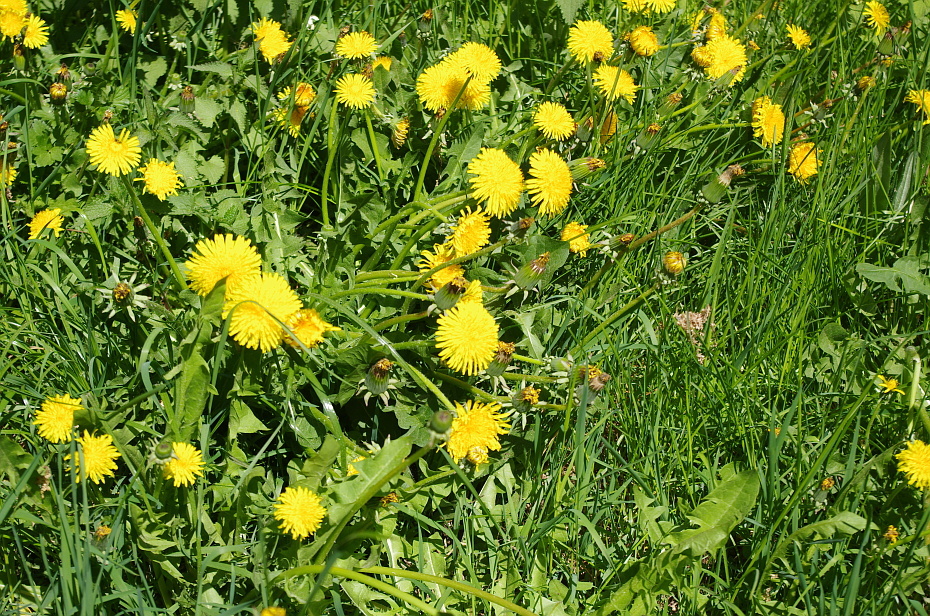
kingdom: Plantae
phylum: Tracheophyta
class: Magnoliopsida
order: Asterales
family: Asteraceae
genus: Taraxacum
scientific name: Taraxacum officinale
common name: Common dandelion
